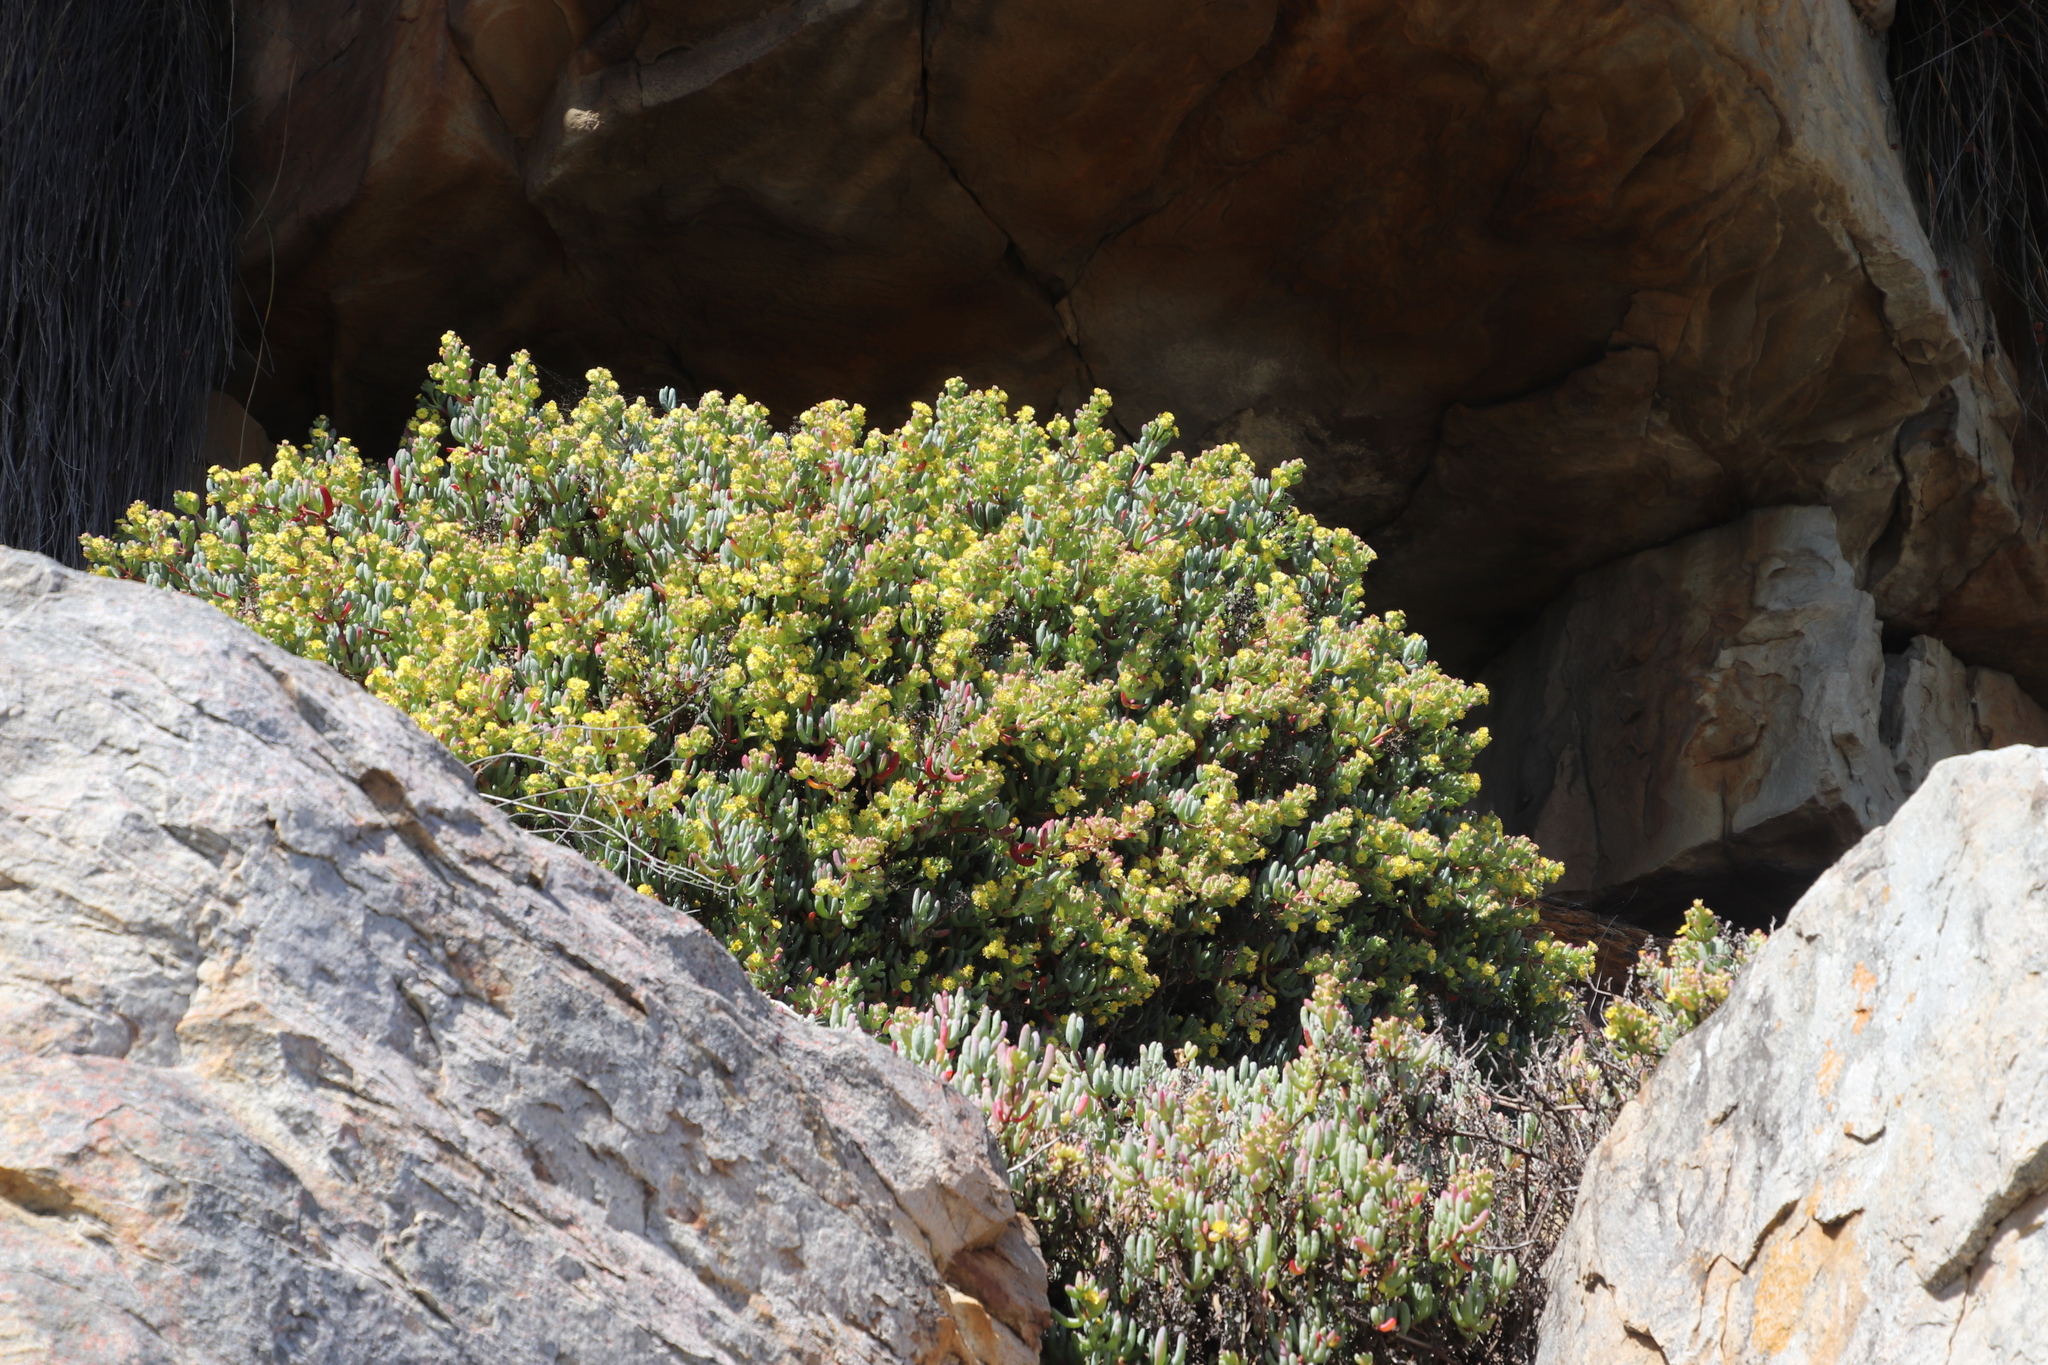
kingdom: Plantae
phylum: Tracheophyta
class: Magnoliopsida
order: Caryophyllales
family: Aizoaceae
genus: Scopelogena
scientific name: Scopelogena verruculata
